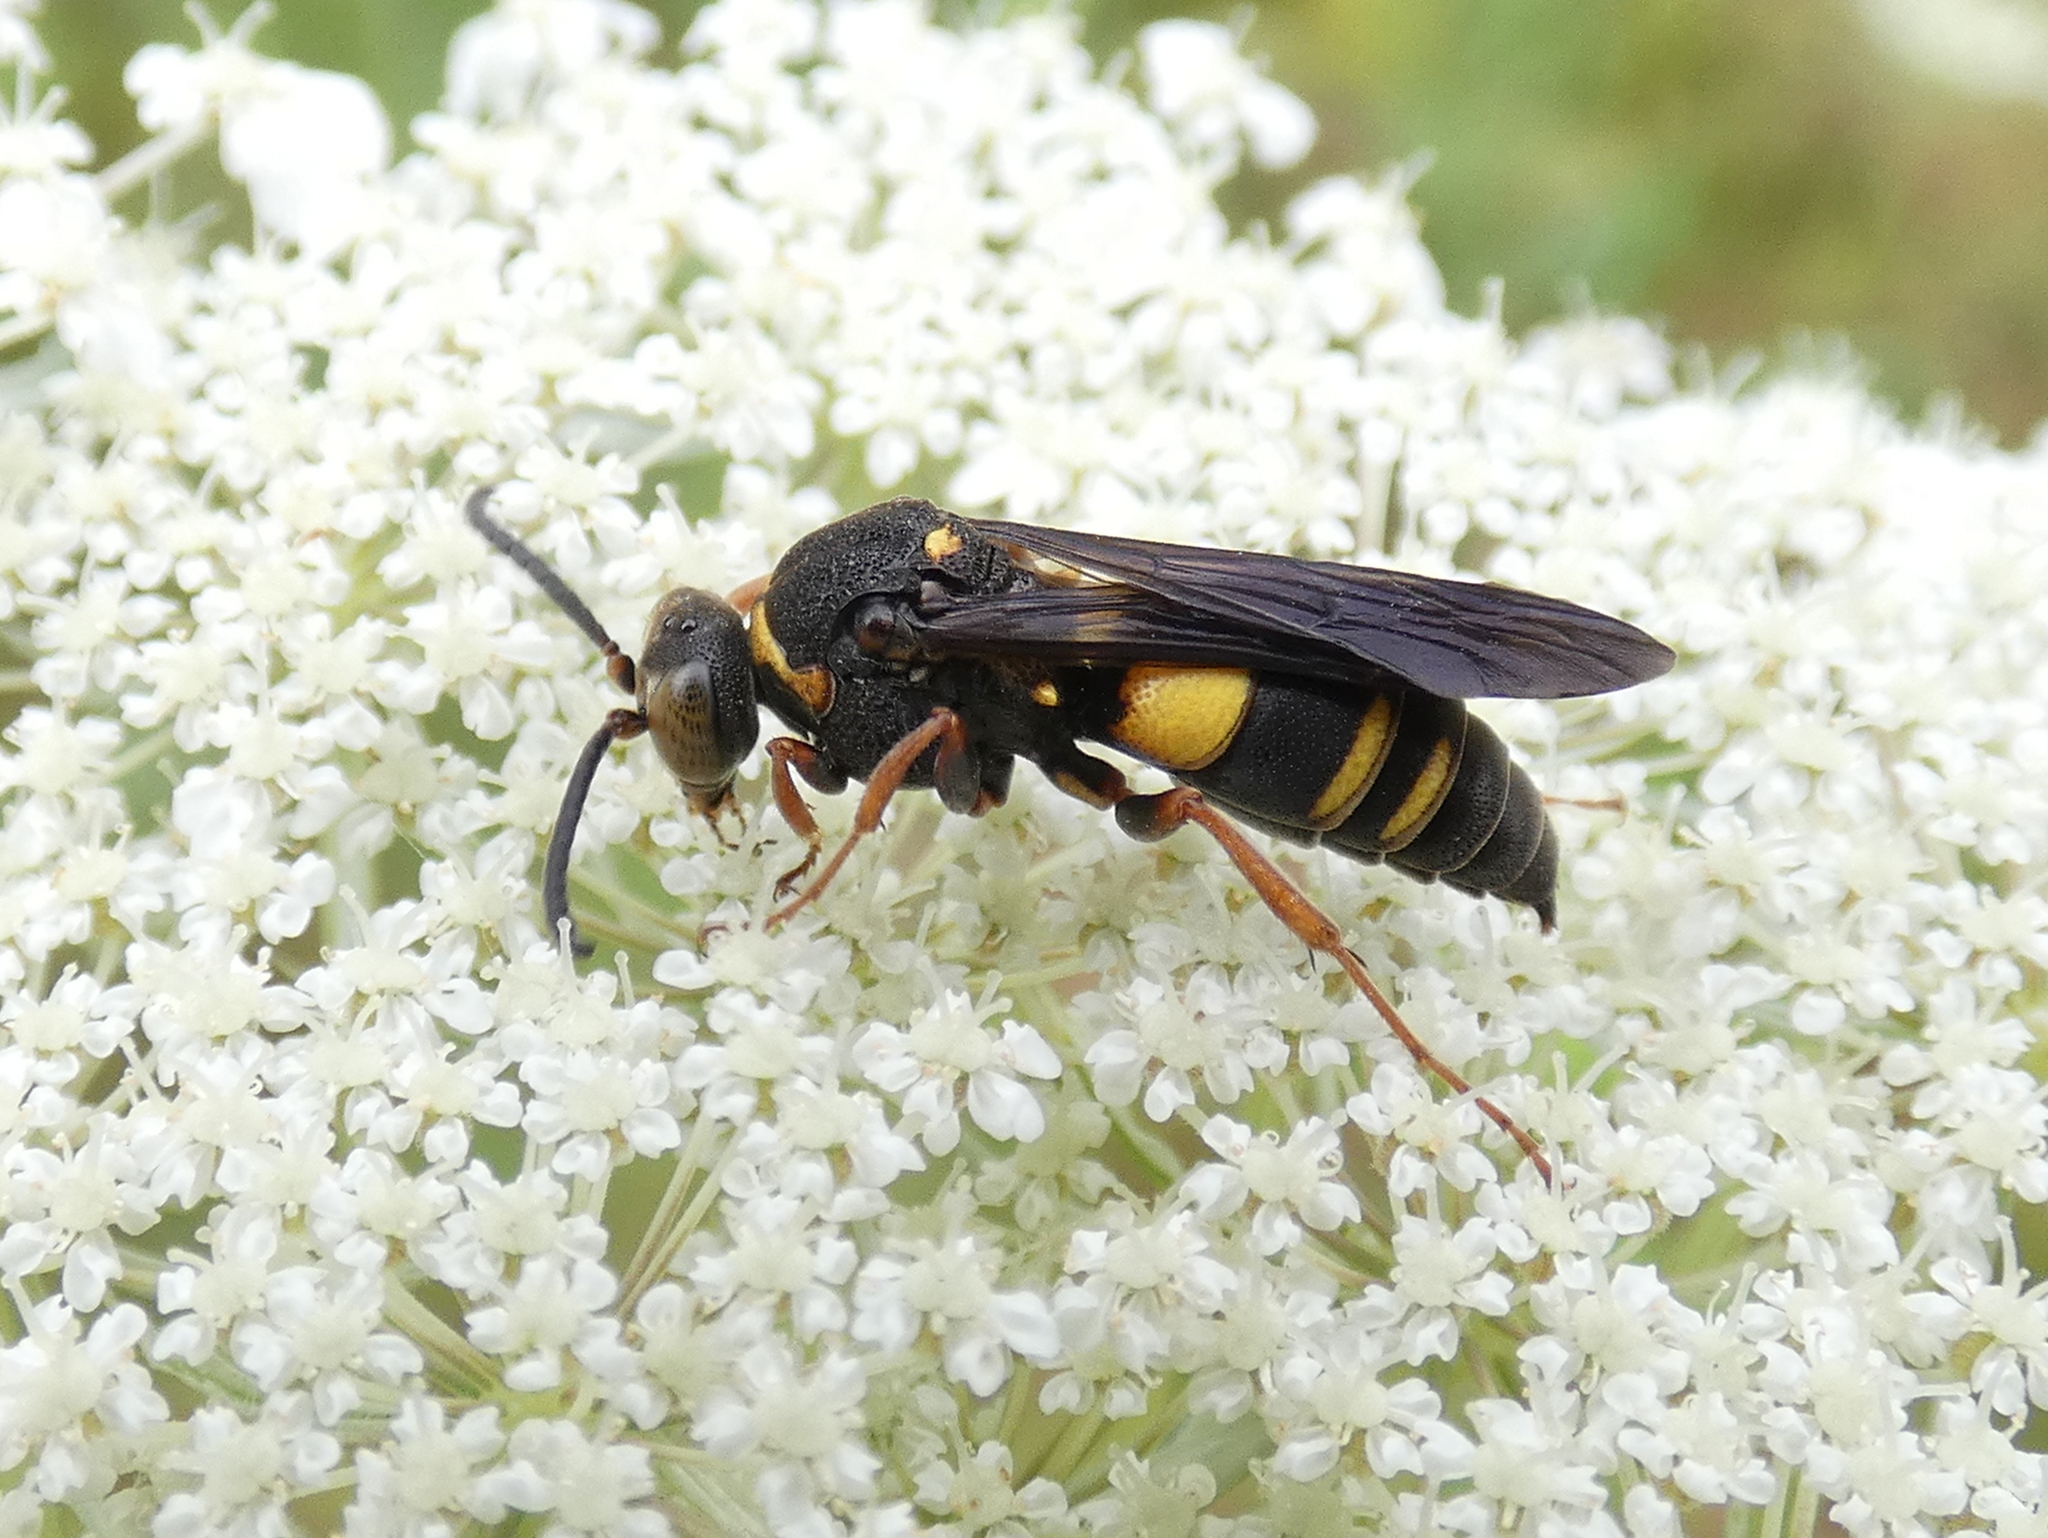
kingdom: Animalia
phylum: Arthropoda
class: Insecta
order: Hymenoptera
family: Crabronidae
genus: Nysson
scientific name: Nysson plagiatus
